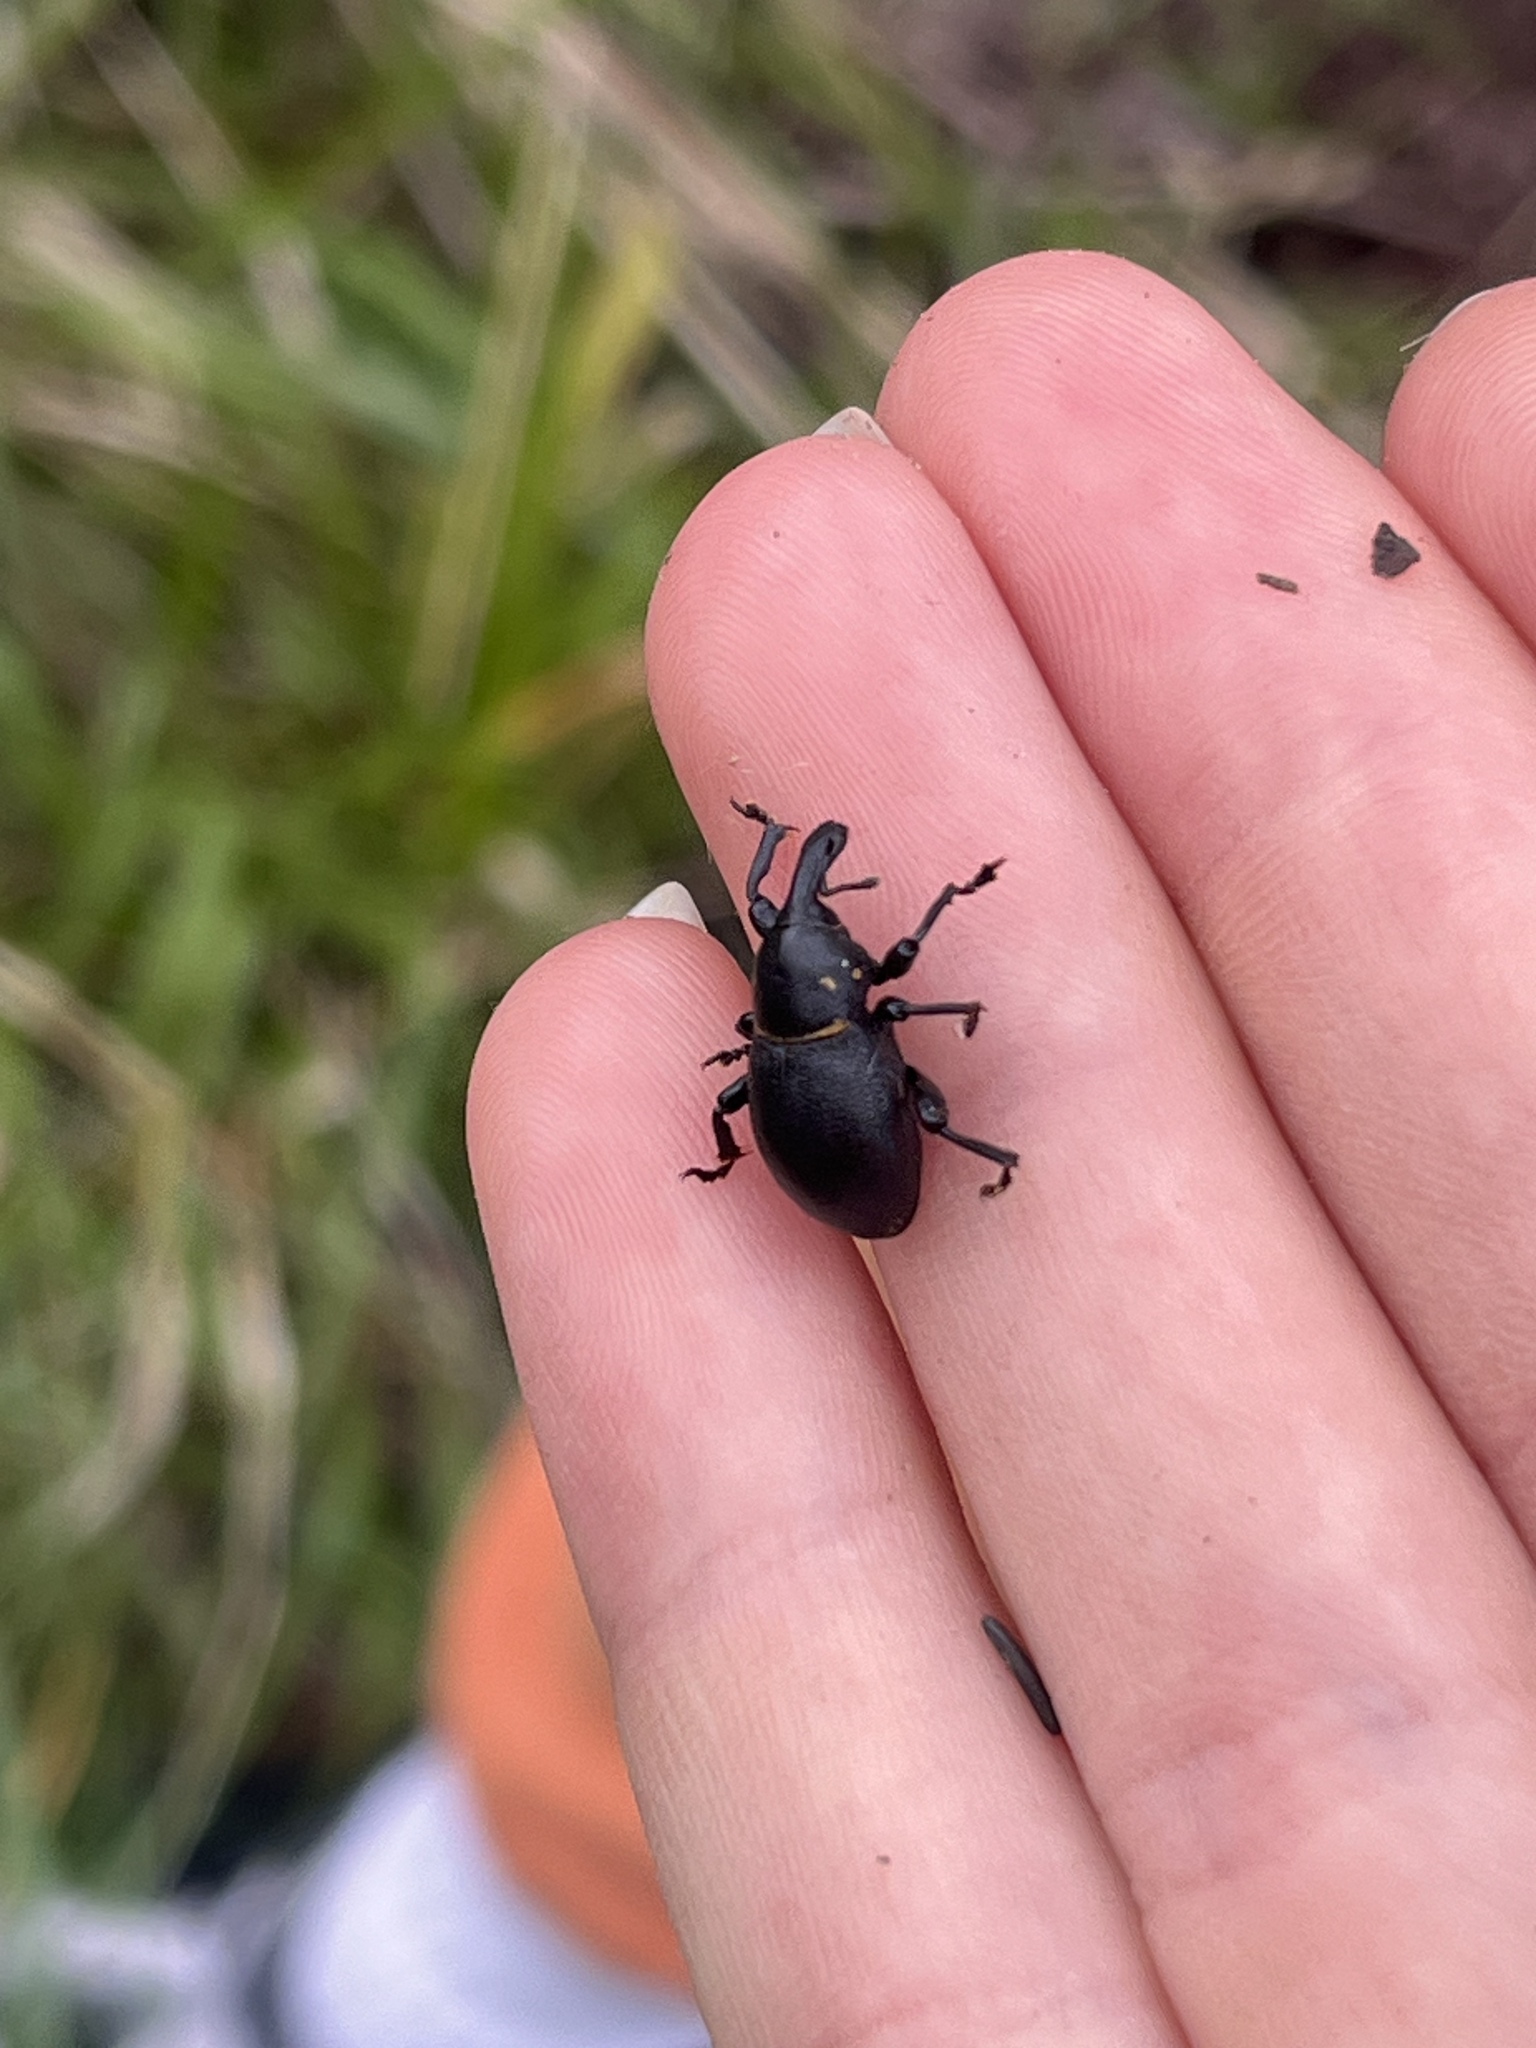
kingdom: Animalia
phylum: Arthropoda
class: Insecta
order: Coleoptera
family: Curculionidae
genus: Liparus
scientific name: Liparus coronatus
